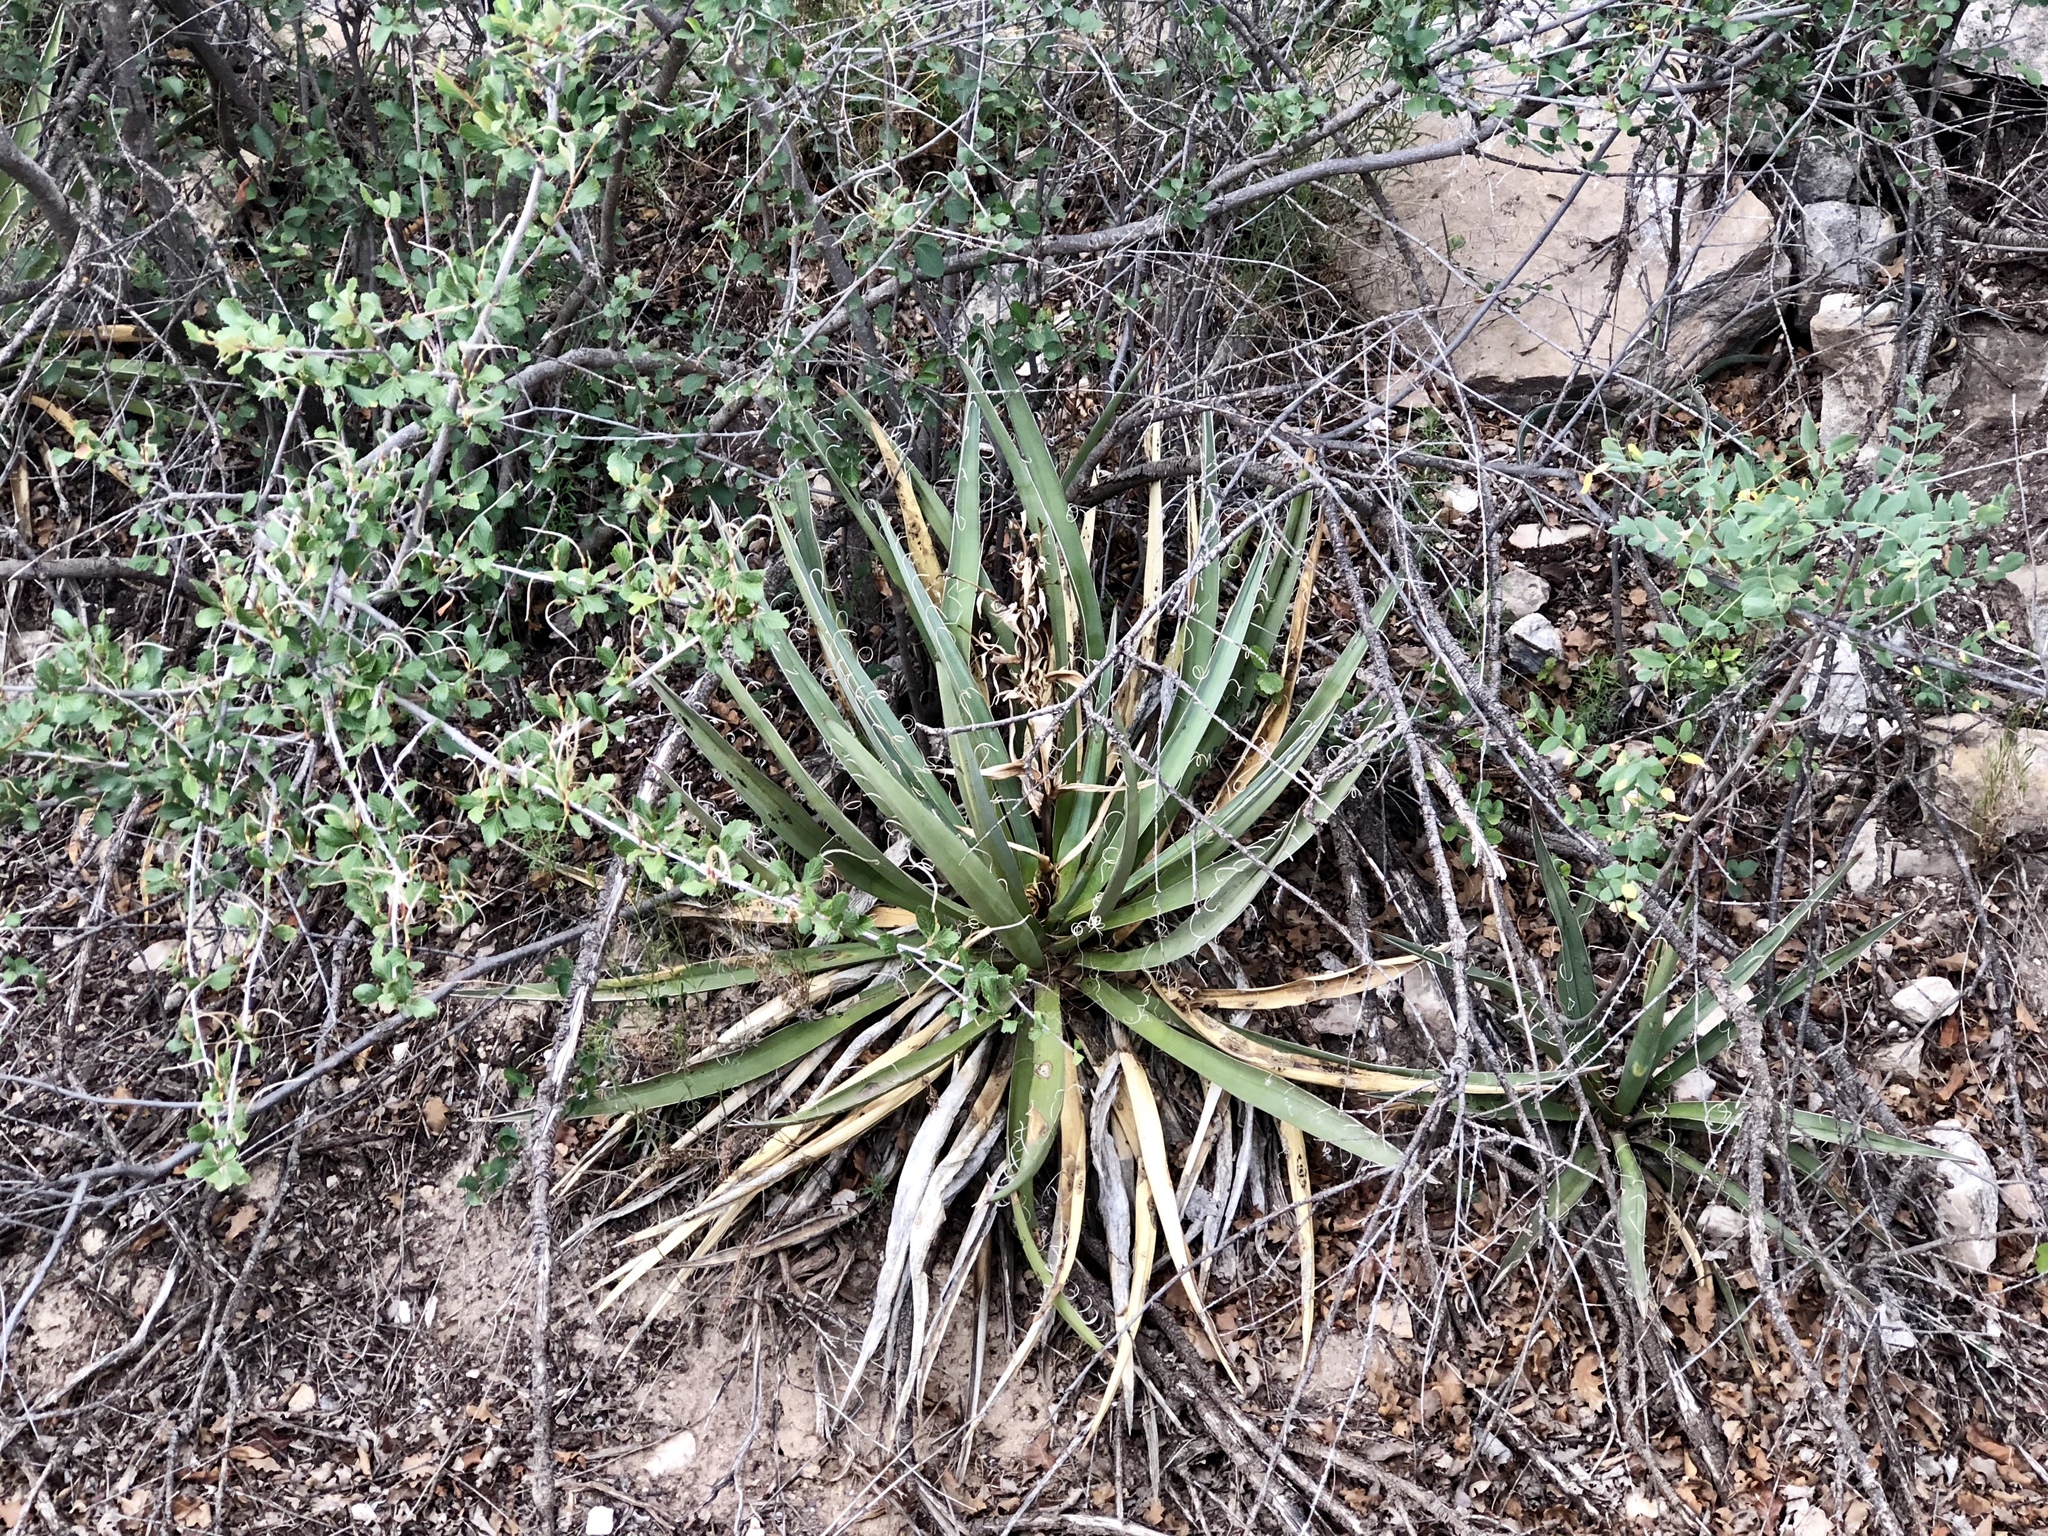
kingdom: Plantae
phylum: Tracheophyta
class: Liliopsida
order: Asparagales
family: Asparagaceae
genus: Yucca
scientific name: Yucca baccata
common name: Banana yucca
